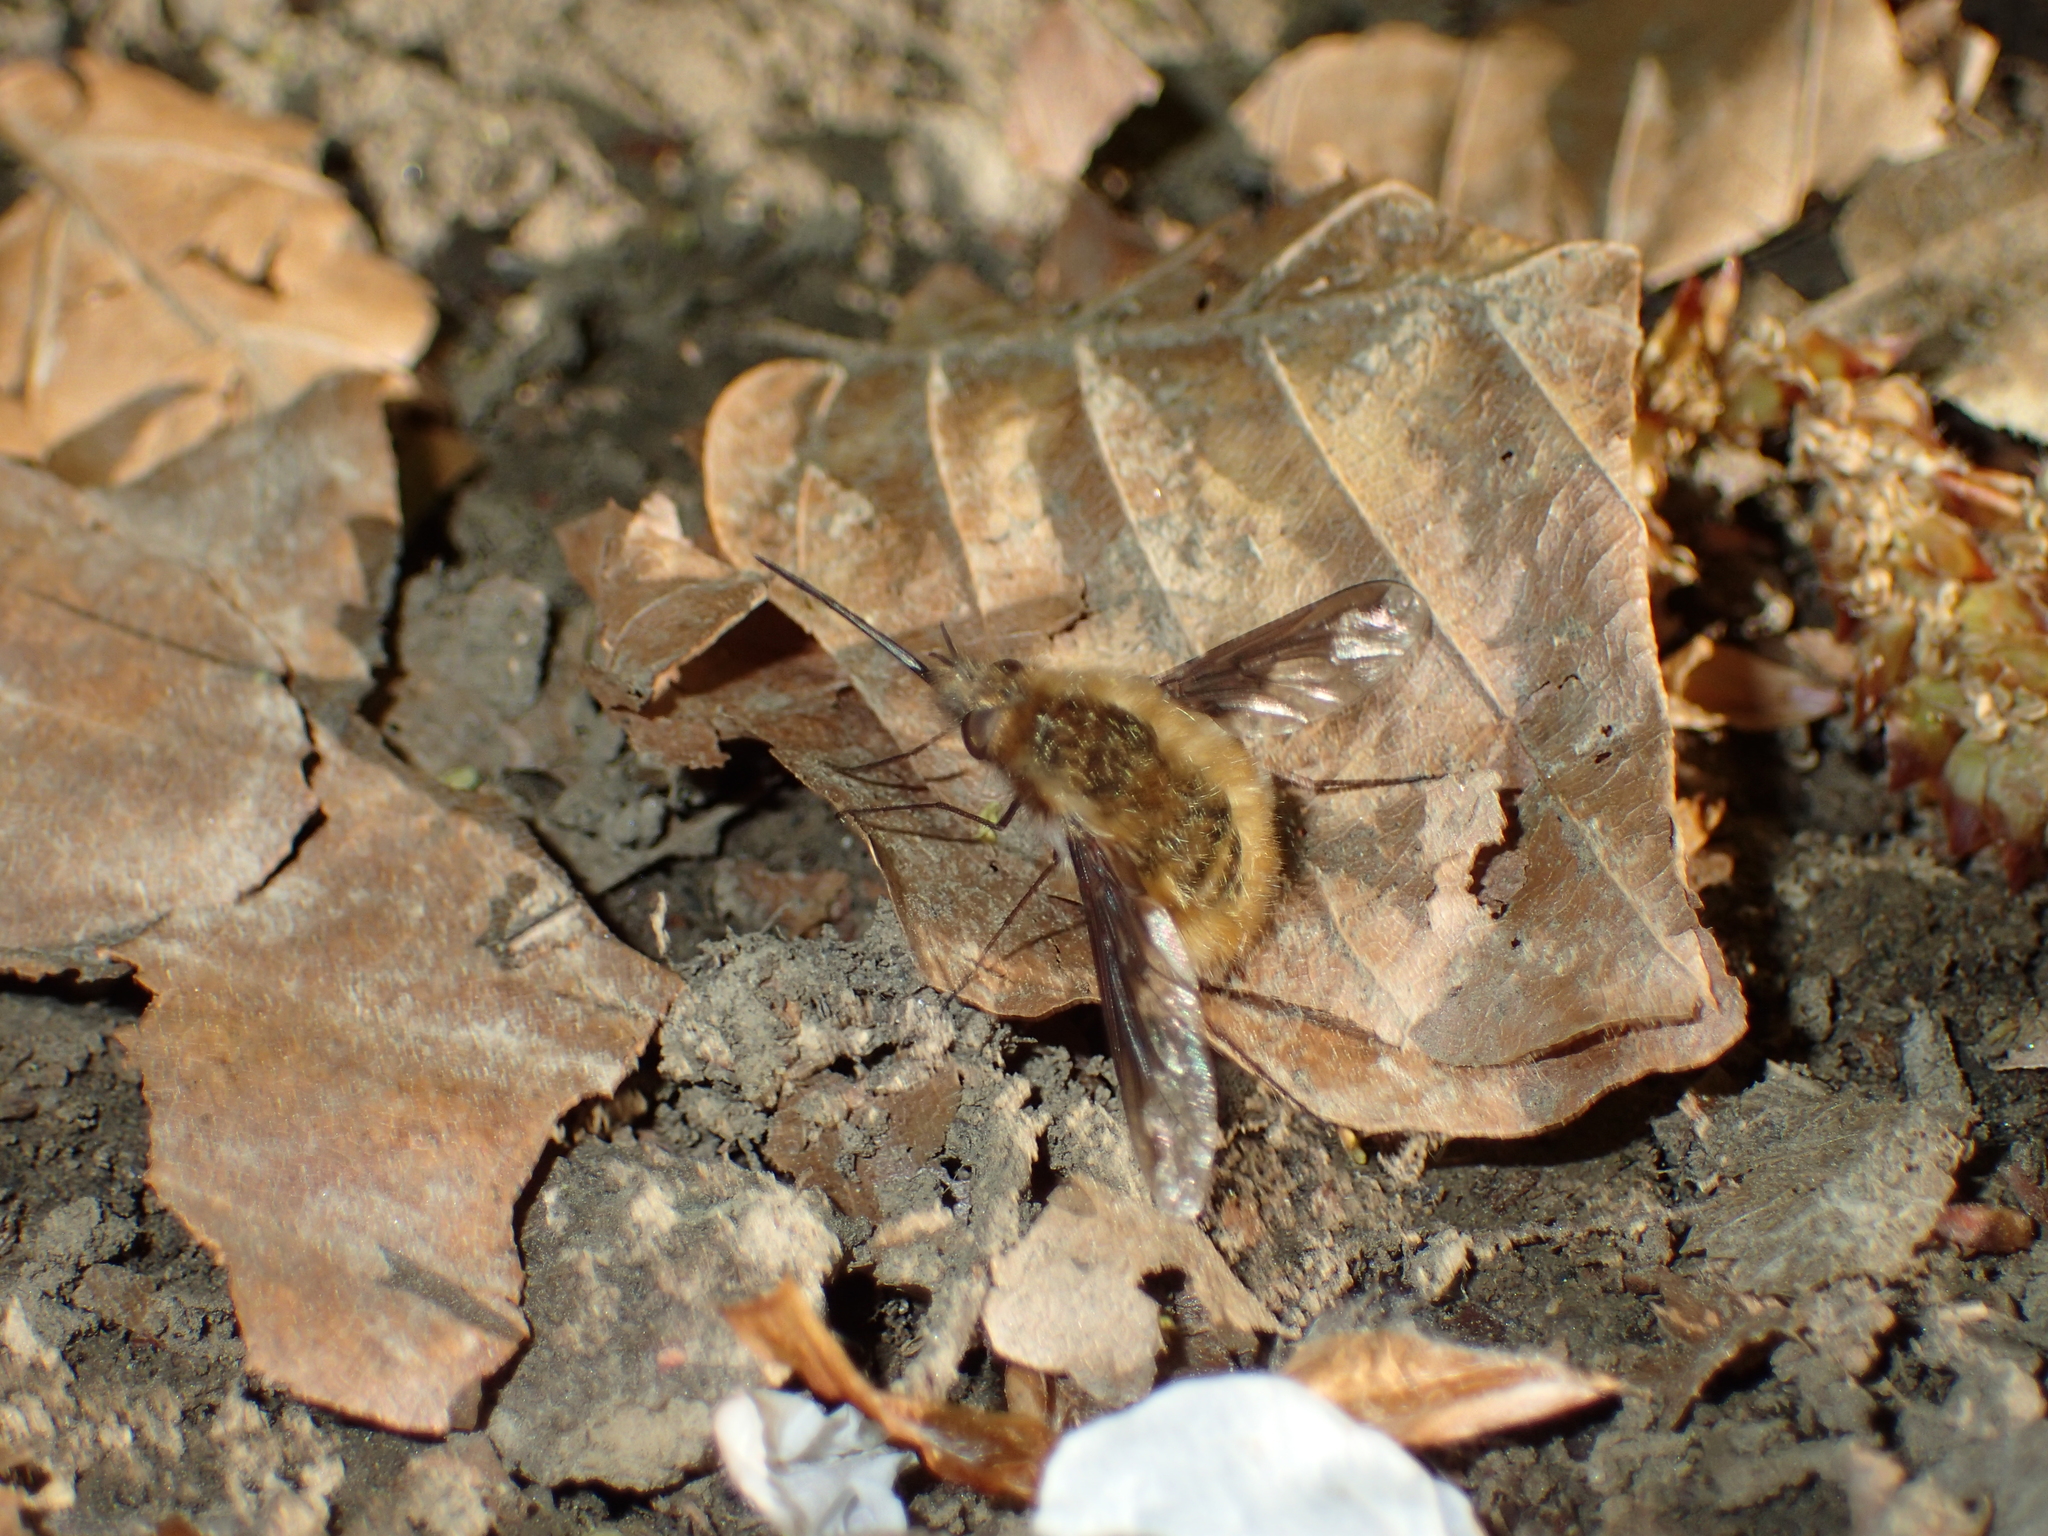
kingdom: Animalia
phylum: Arthropoda
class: Insecta
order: Diptera
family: Bombyliidae
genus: Bombylius
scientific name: Bombylius major
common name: Bee fly
